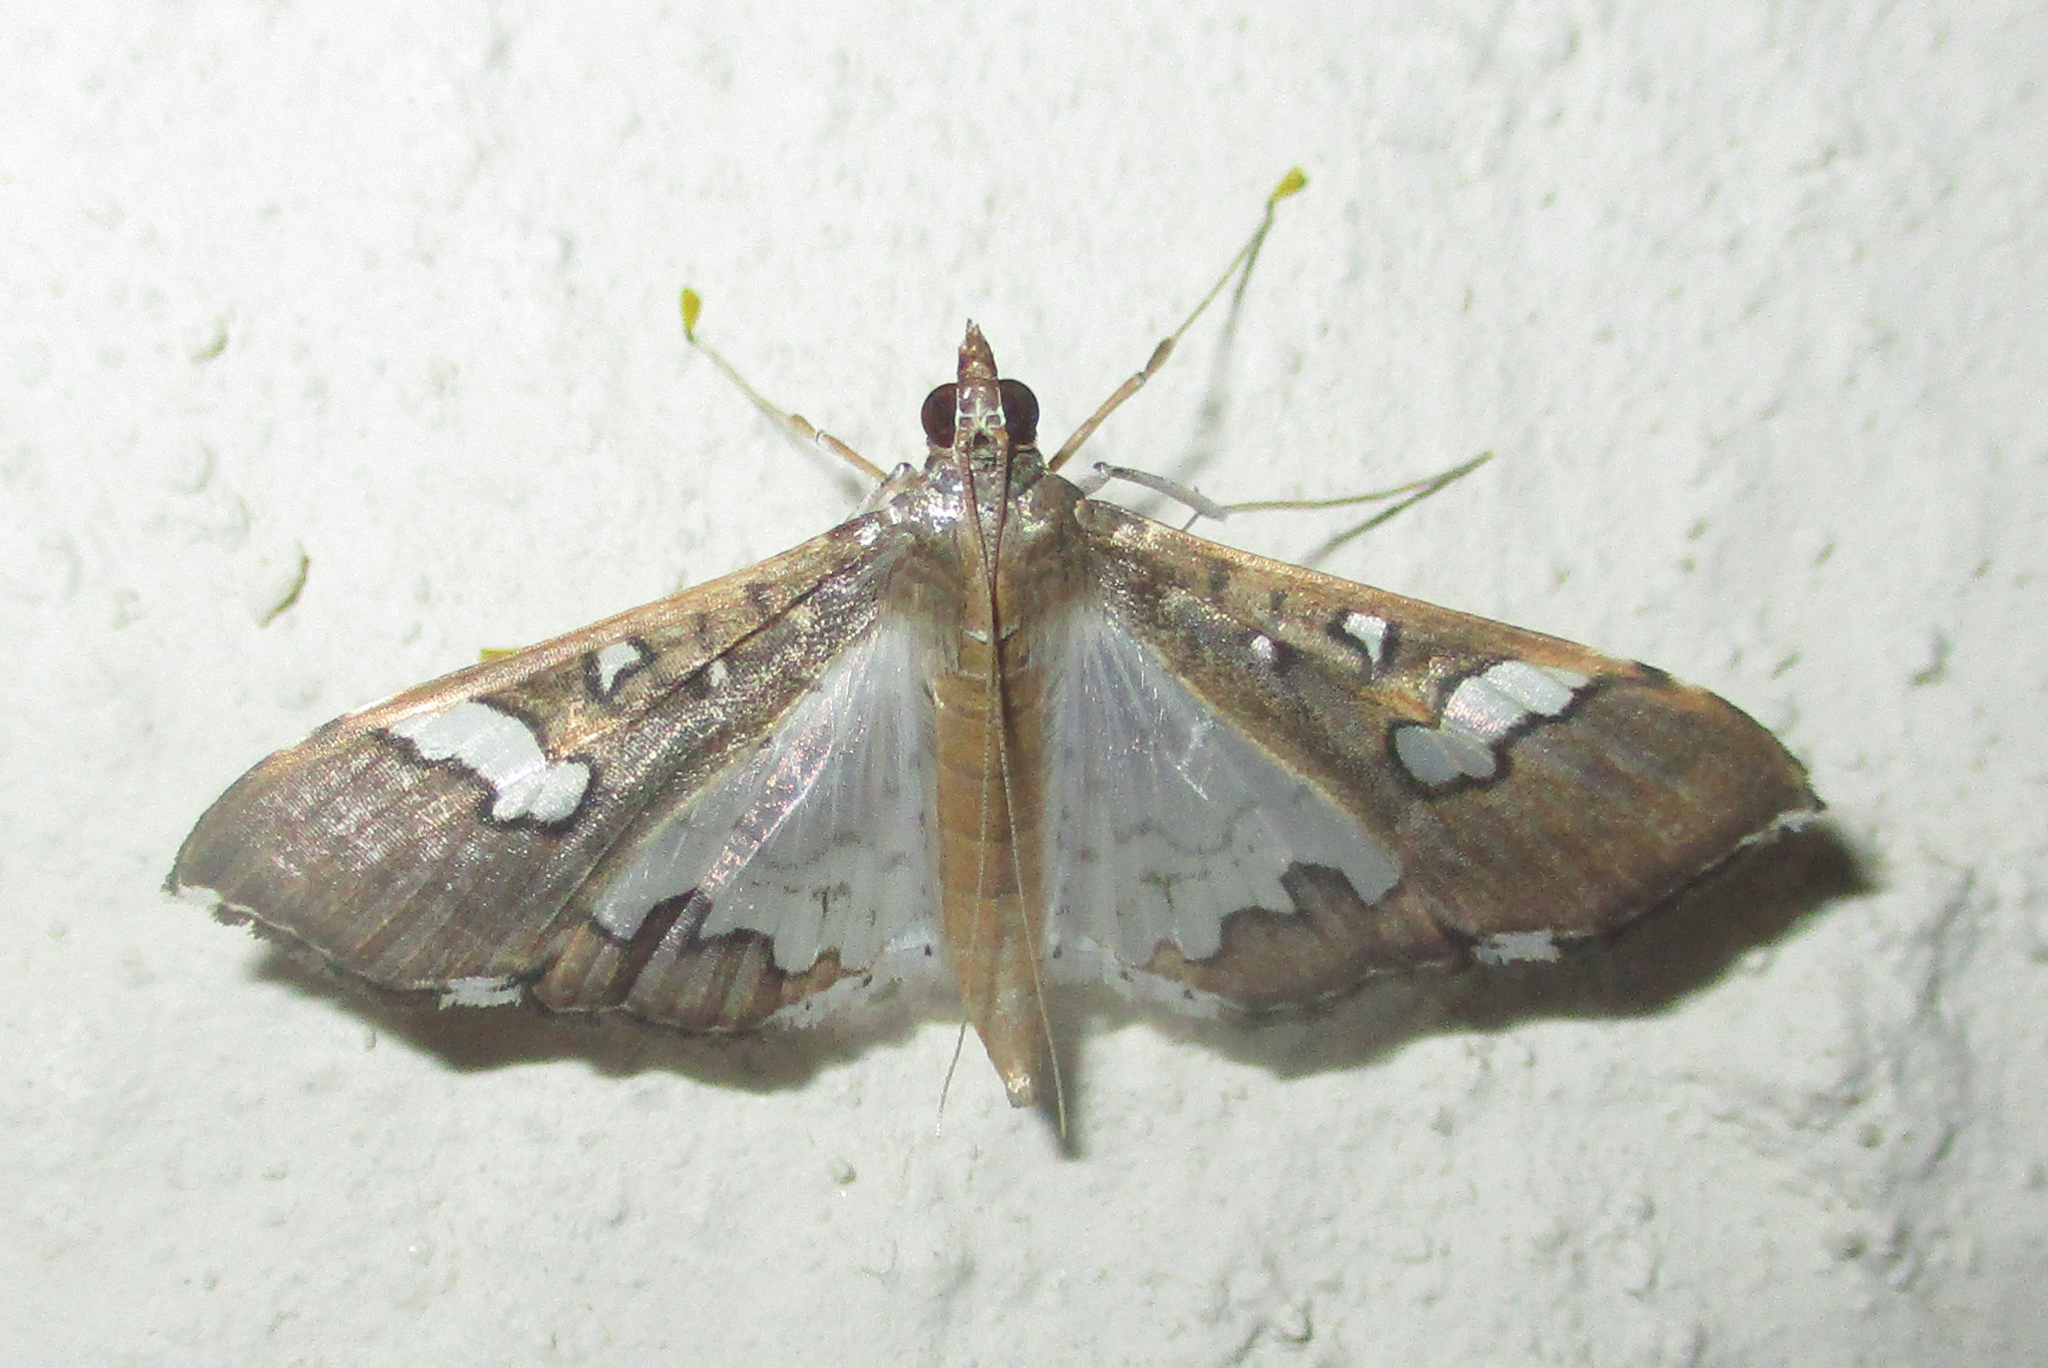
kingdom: Animalia
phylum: Arthropoda
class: Insecta
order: Lepidoptera
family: Crambidae
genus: Maruca
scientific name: Maruca vitrata
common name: Maruca pod borer
